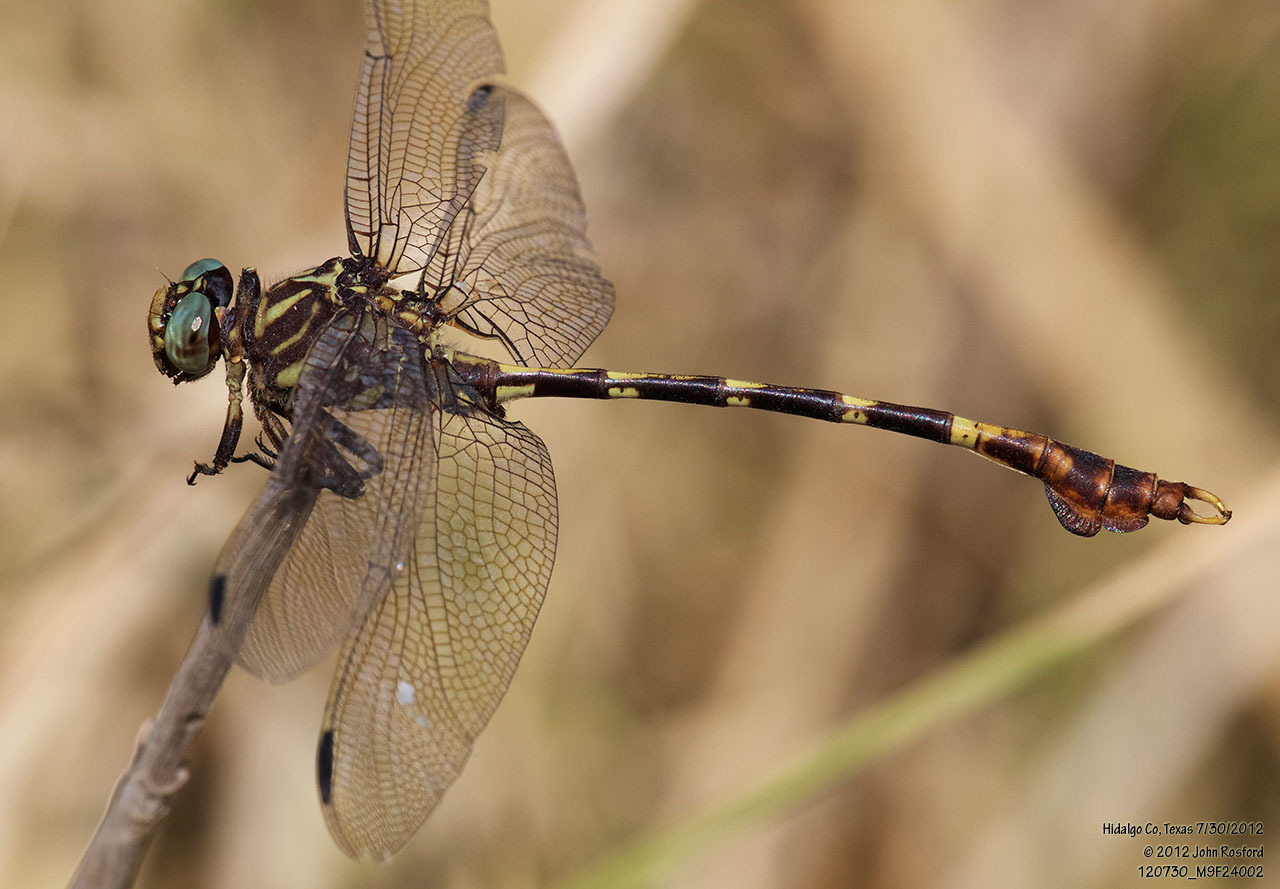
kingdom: Animalia
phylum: Arthropoda
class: Insecta
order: Odonata
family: Gomphidae
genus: Phyllogomphoides
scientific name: Phyllogomphoides albrighti
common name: Five-striped leaftail
